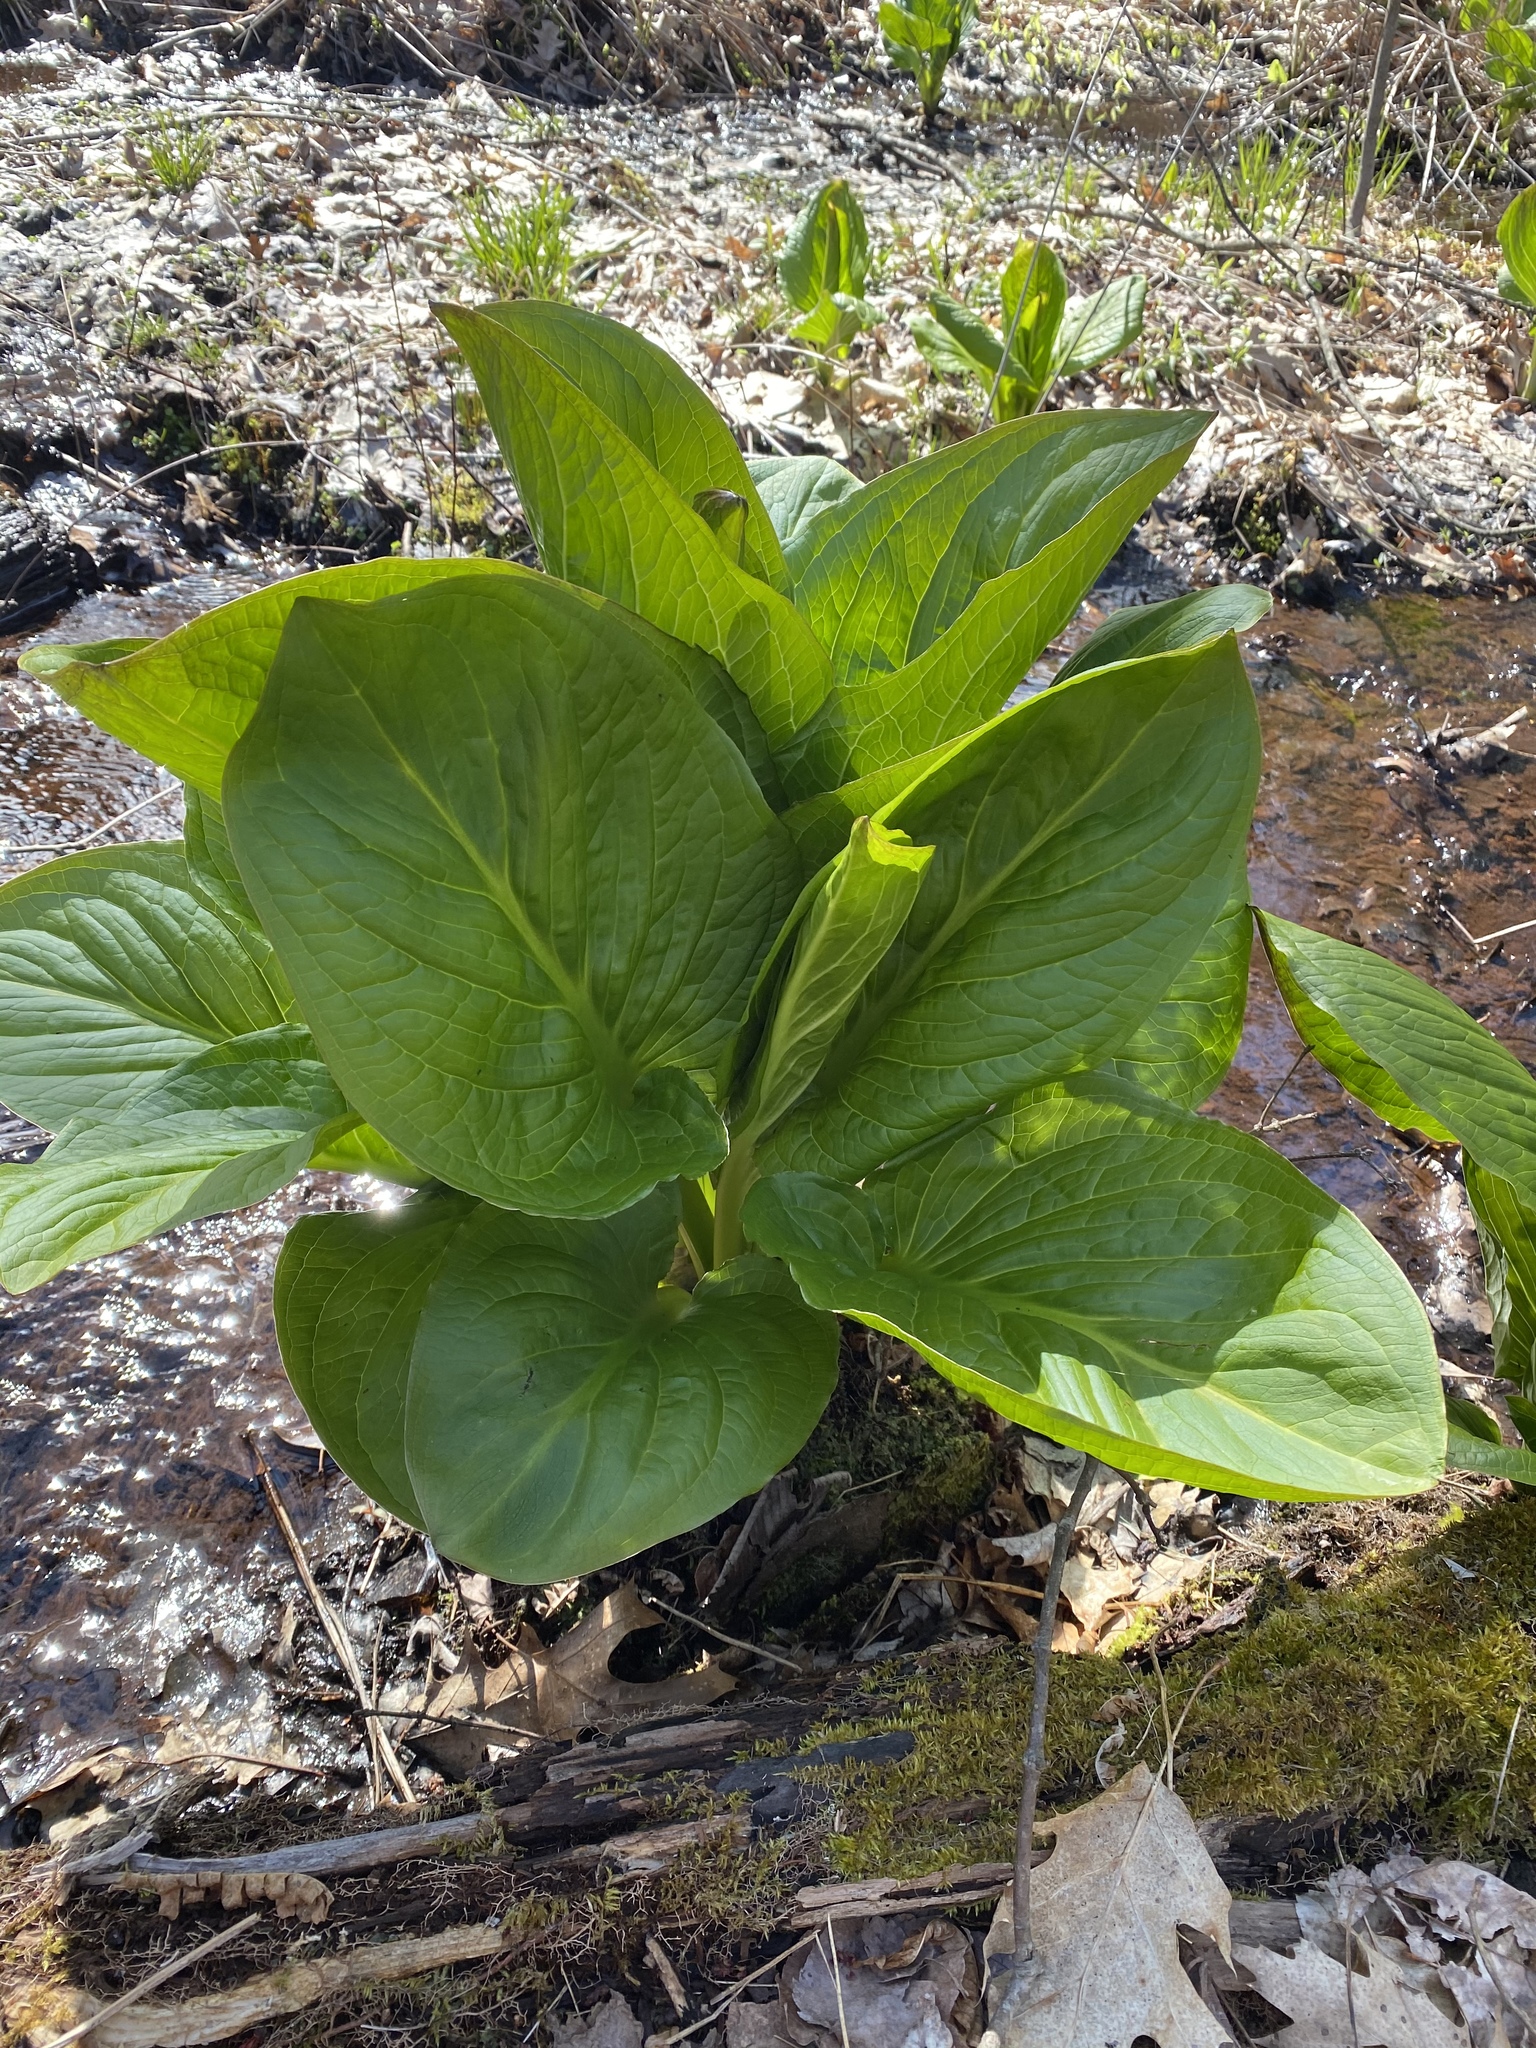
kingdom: Plantae
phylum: Tracheophyta
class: Liliopsida
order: Alismatales
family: Araceae
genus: Symplocarpus
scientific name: Symplocarpus foetidus
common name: Eastern skunk cabbage
